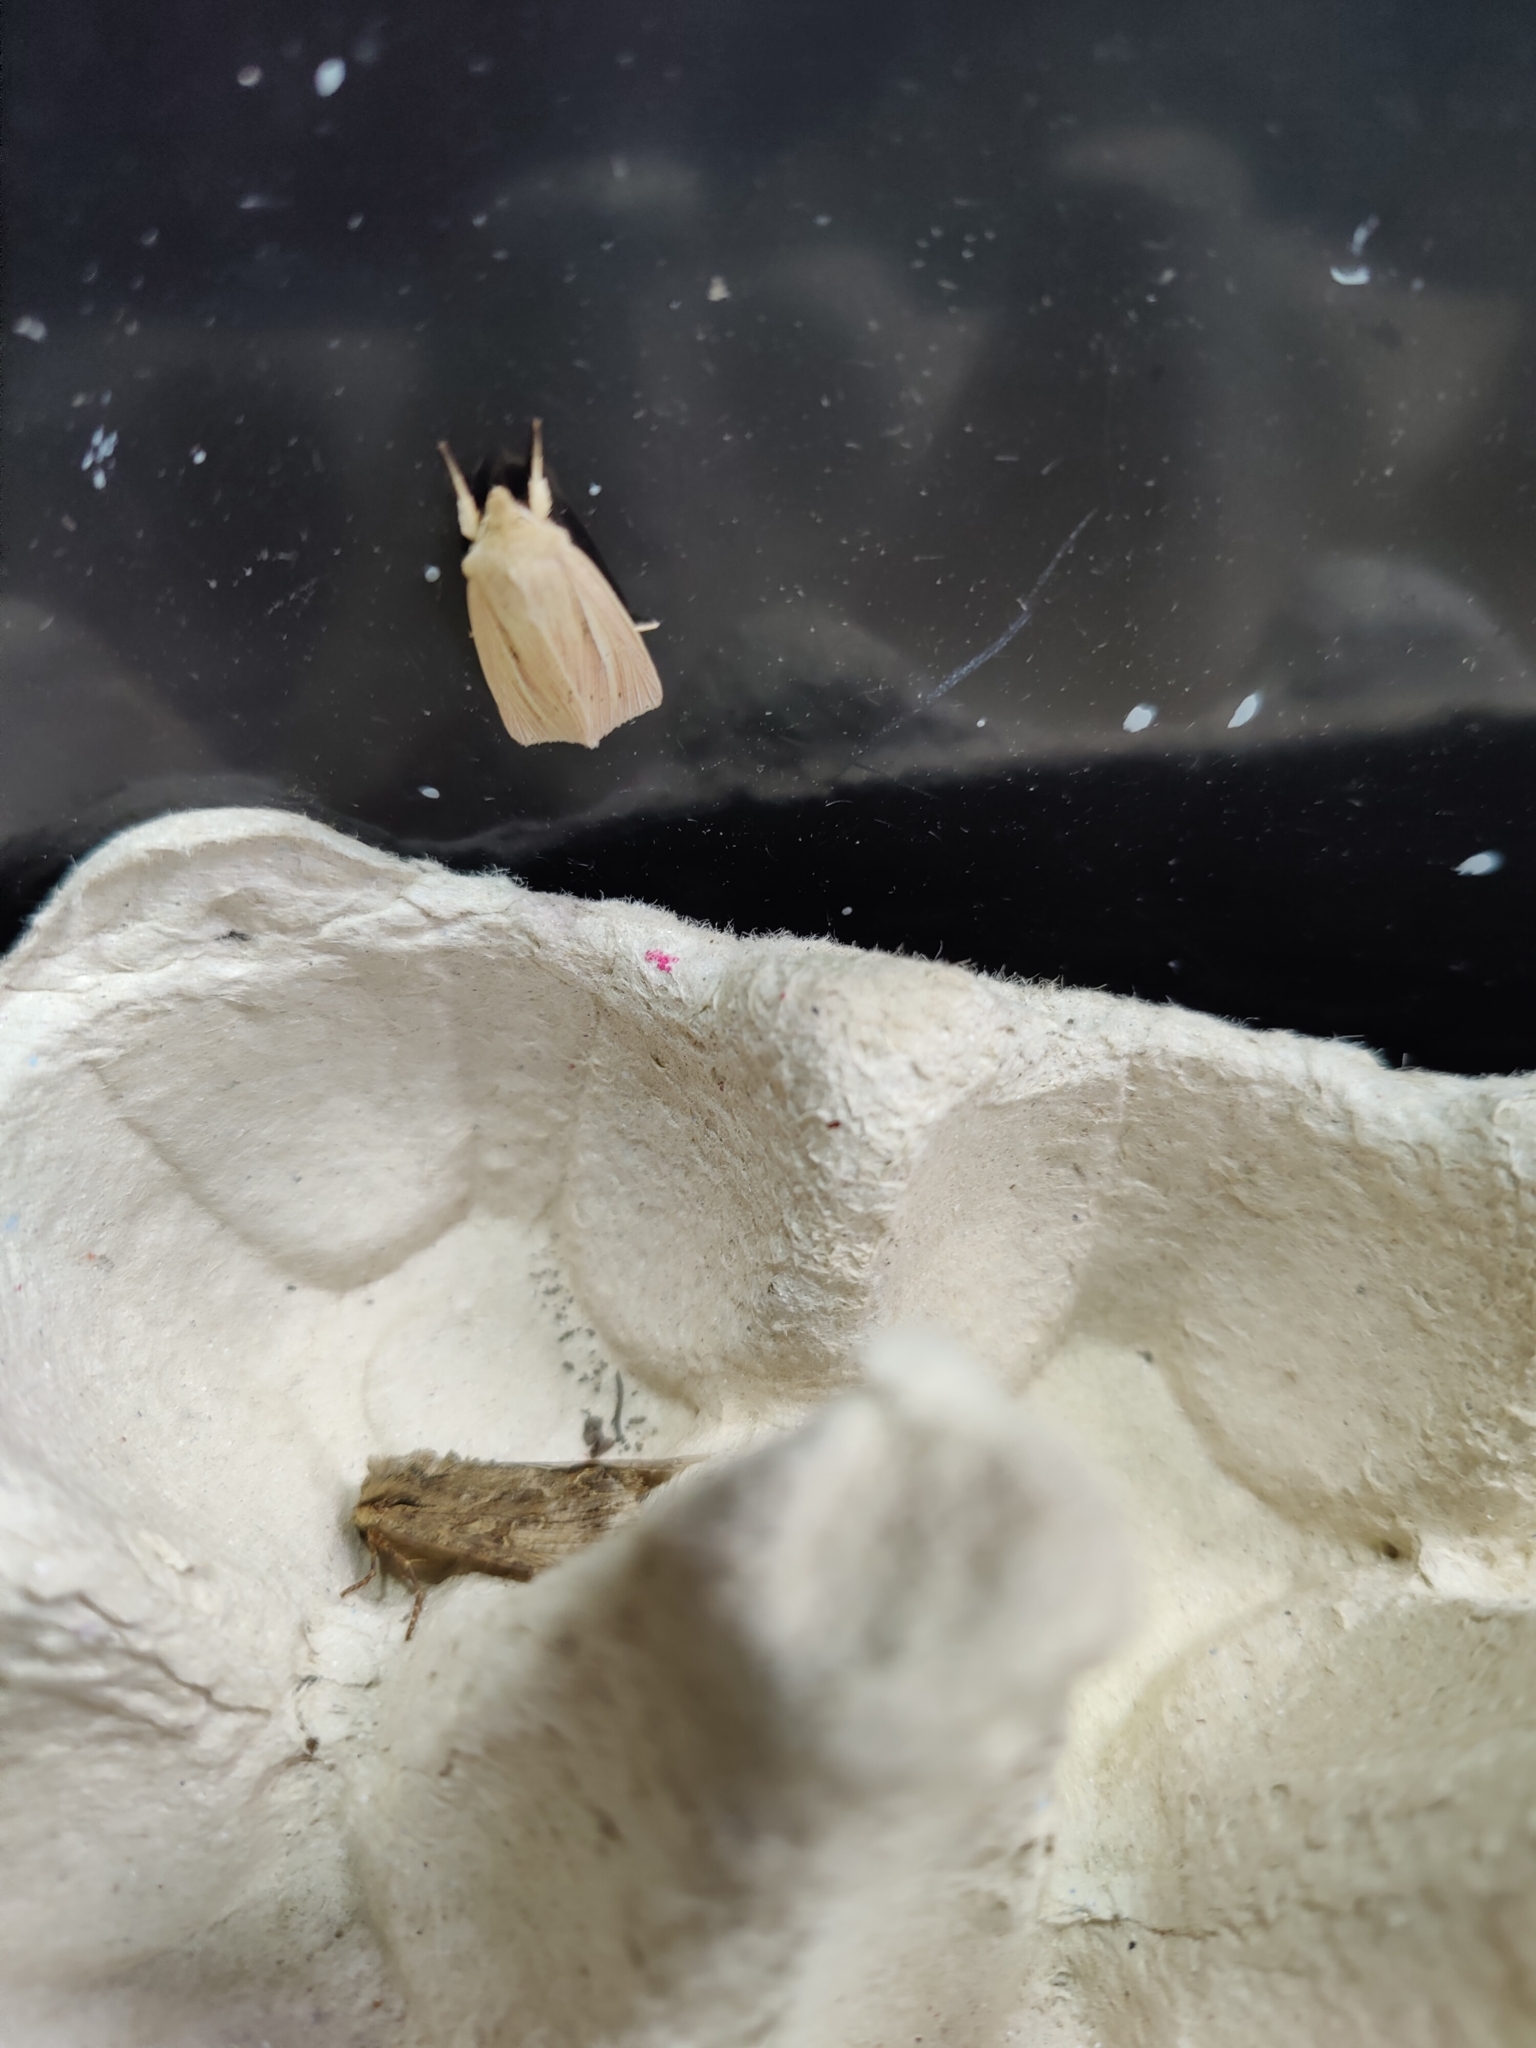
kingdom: Animalia
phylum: Arthropoda
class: Insecta
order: Lepidoptera
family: Noctuidae
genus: Rhizedra
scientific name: Rhizedra lutosa
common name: Large wainscot
